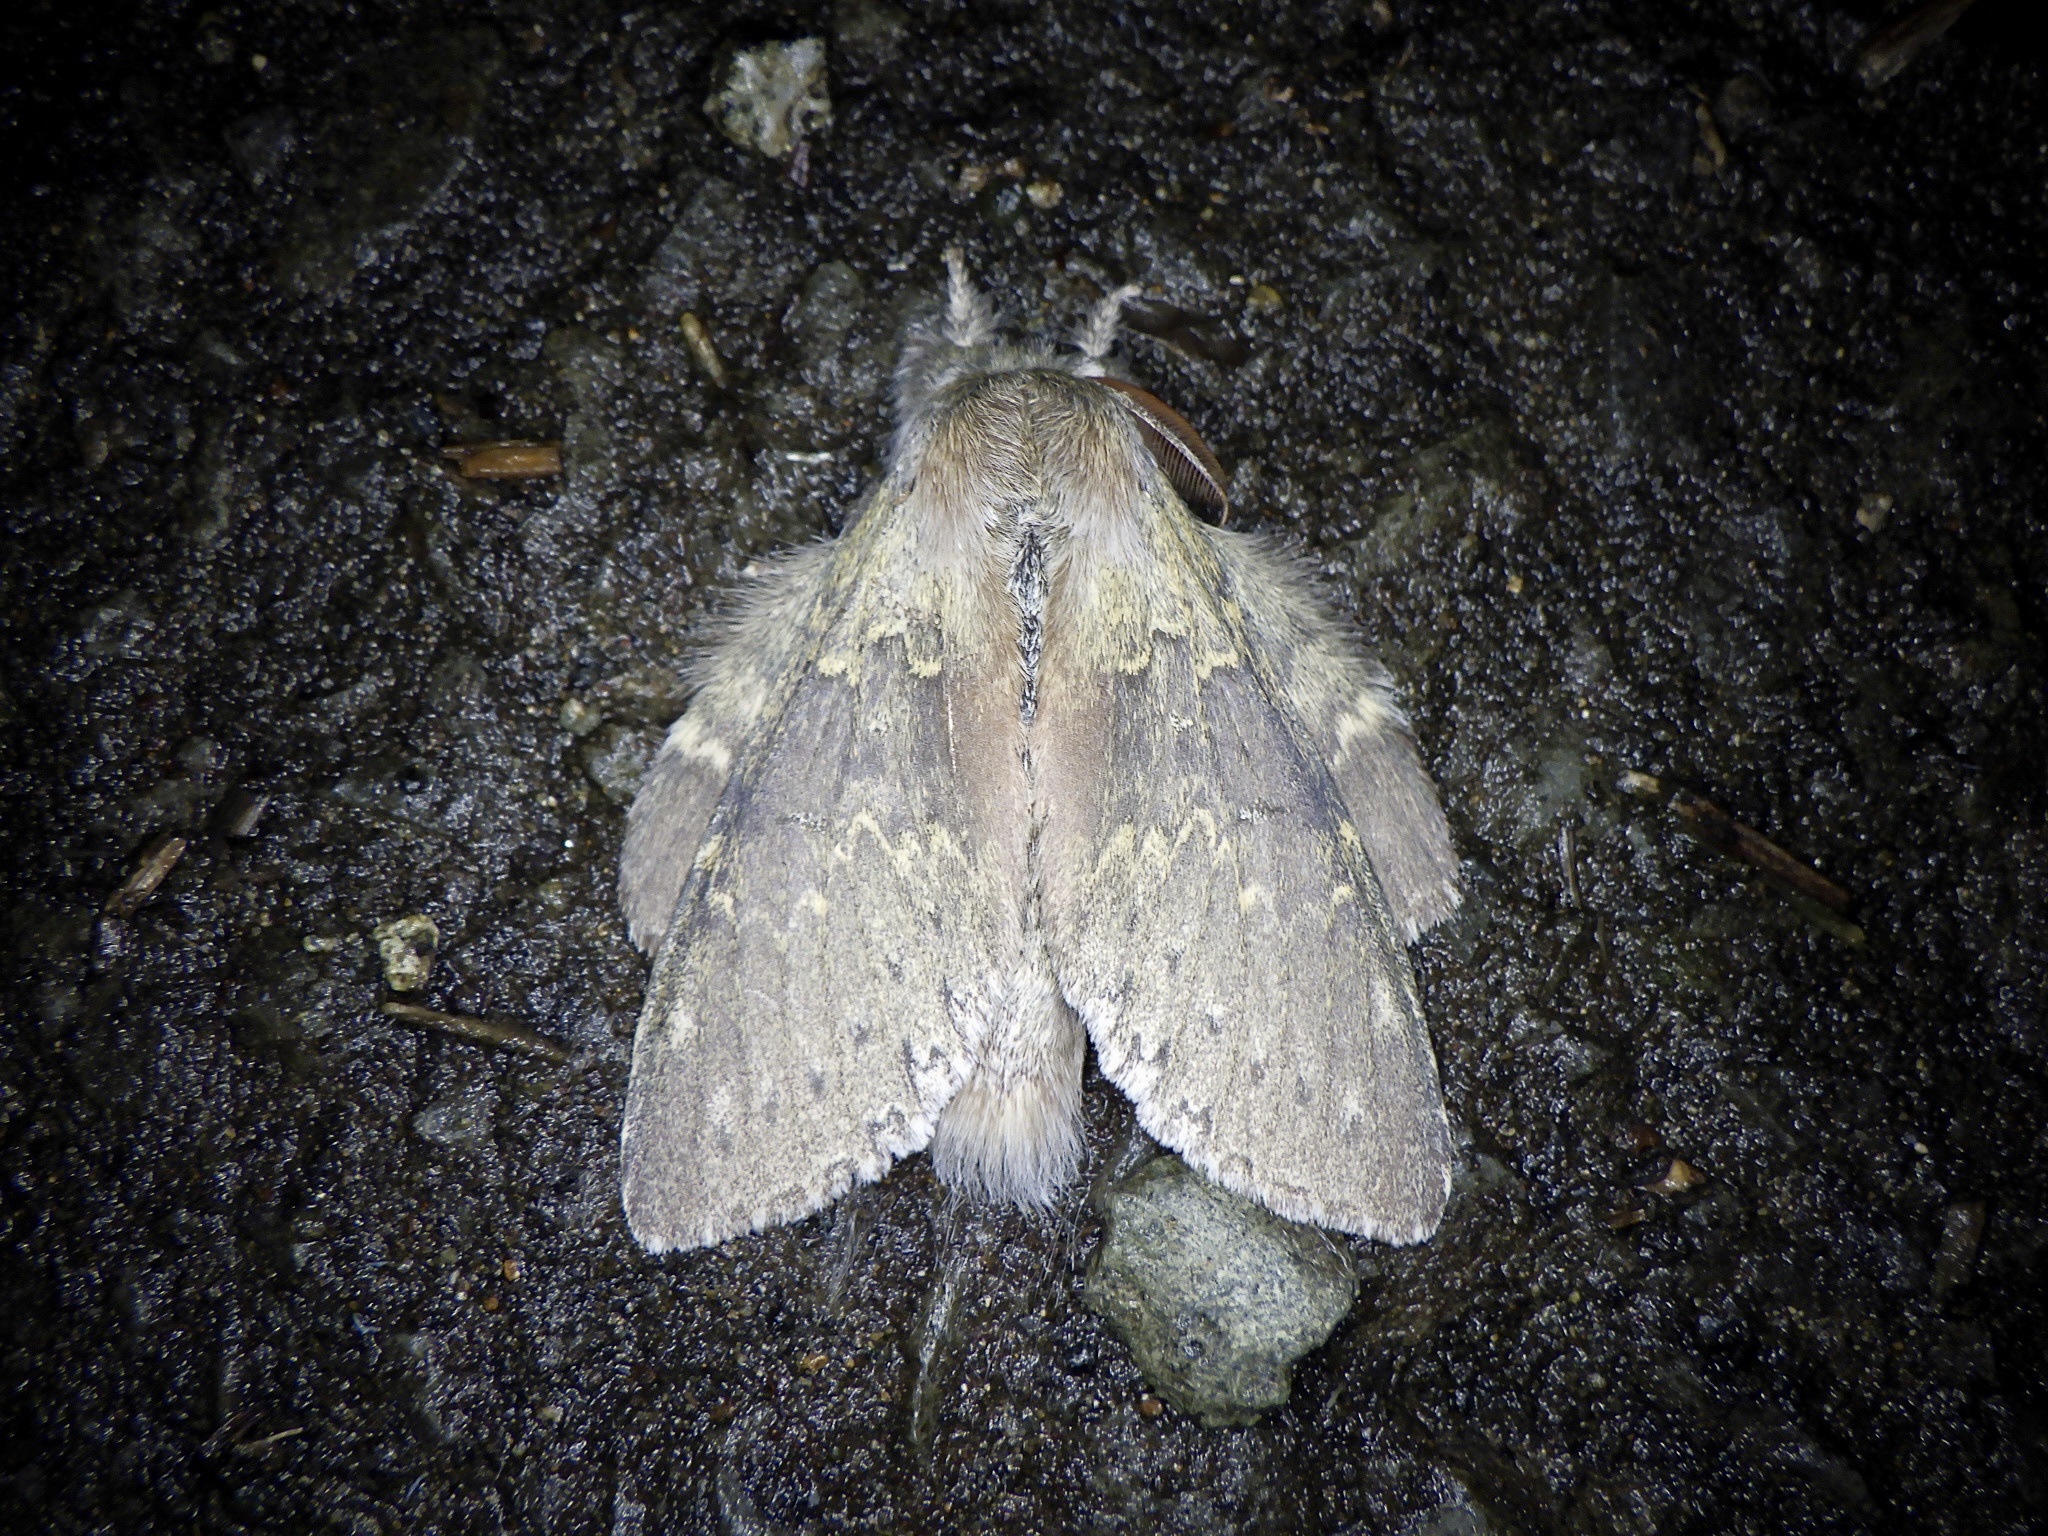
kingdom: Animalia
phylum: Arthropoda
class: Insecta
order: Lepidoptera
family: Notodontidae
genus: Stauropus
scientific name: Stauropus fagi
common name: Lobster moth
